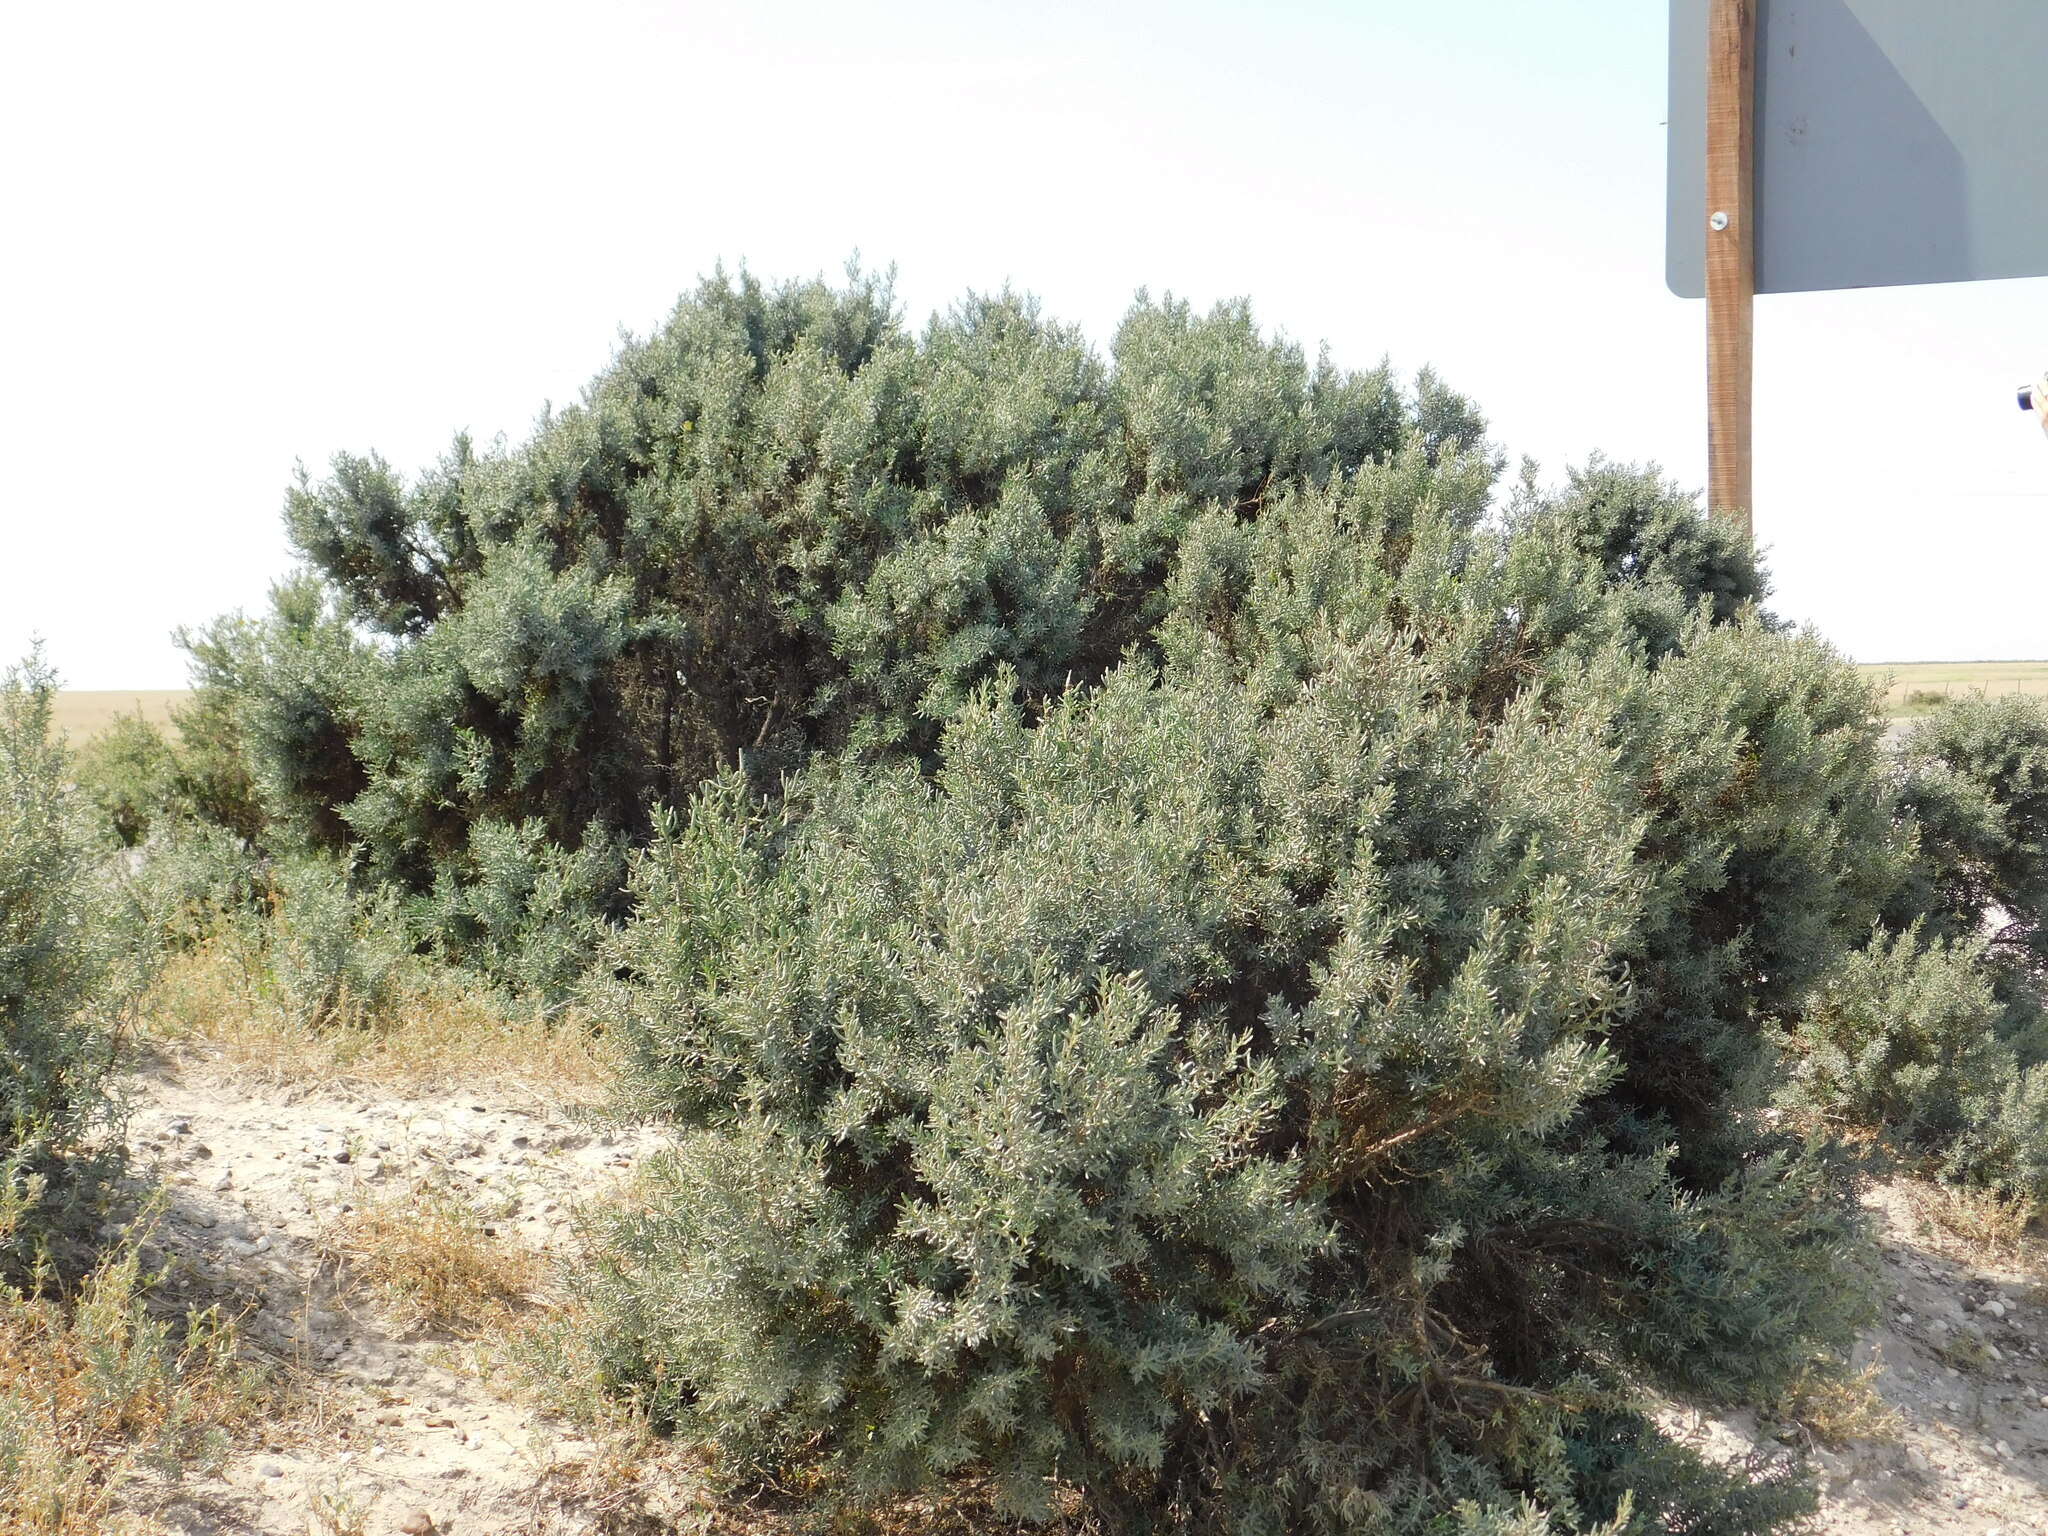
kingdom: Plantae
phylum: Tracheophyta
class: Magnoliopsida
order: Caryophyllales
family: Amaranthaceae
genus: Suaeda
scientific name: Suaeda divaricata
